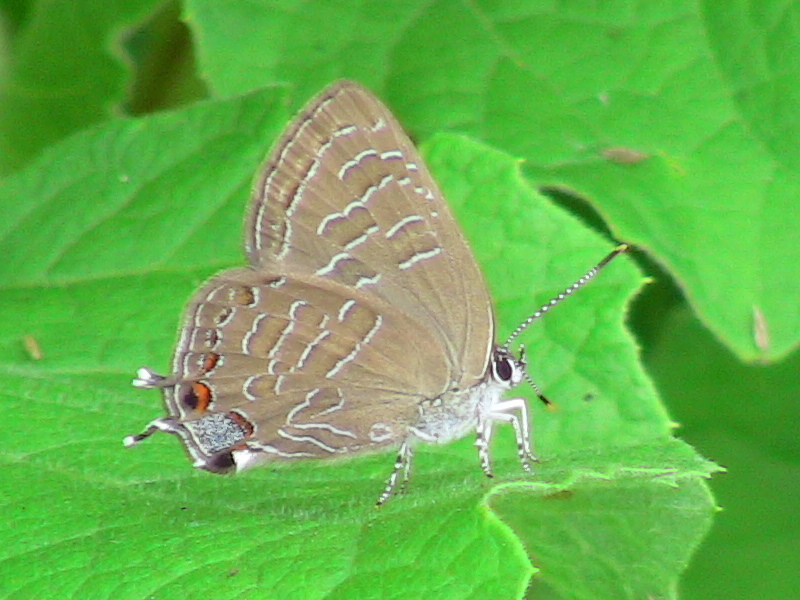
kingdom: Animalia
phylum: Arthropoda
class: Insecta
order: Lepidoptera
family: Lycaenidae
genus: Satyrium
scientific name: Satyrium liparops
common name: Striped hairstreak
